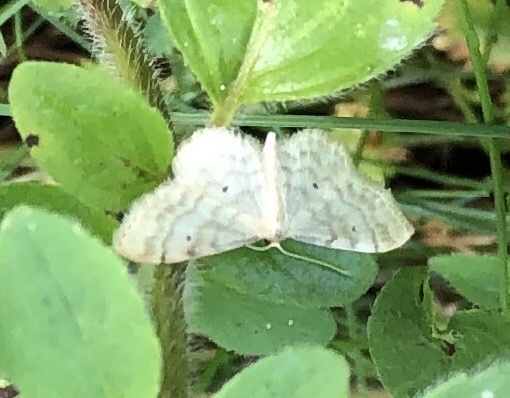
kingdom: Animalia
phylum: Arthropoda
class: Insecta
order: Lepidoptera
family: Geometridae
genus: Idaea
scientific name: Idaea fuscovenosa
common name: Dwarf cream wave
